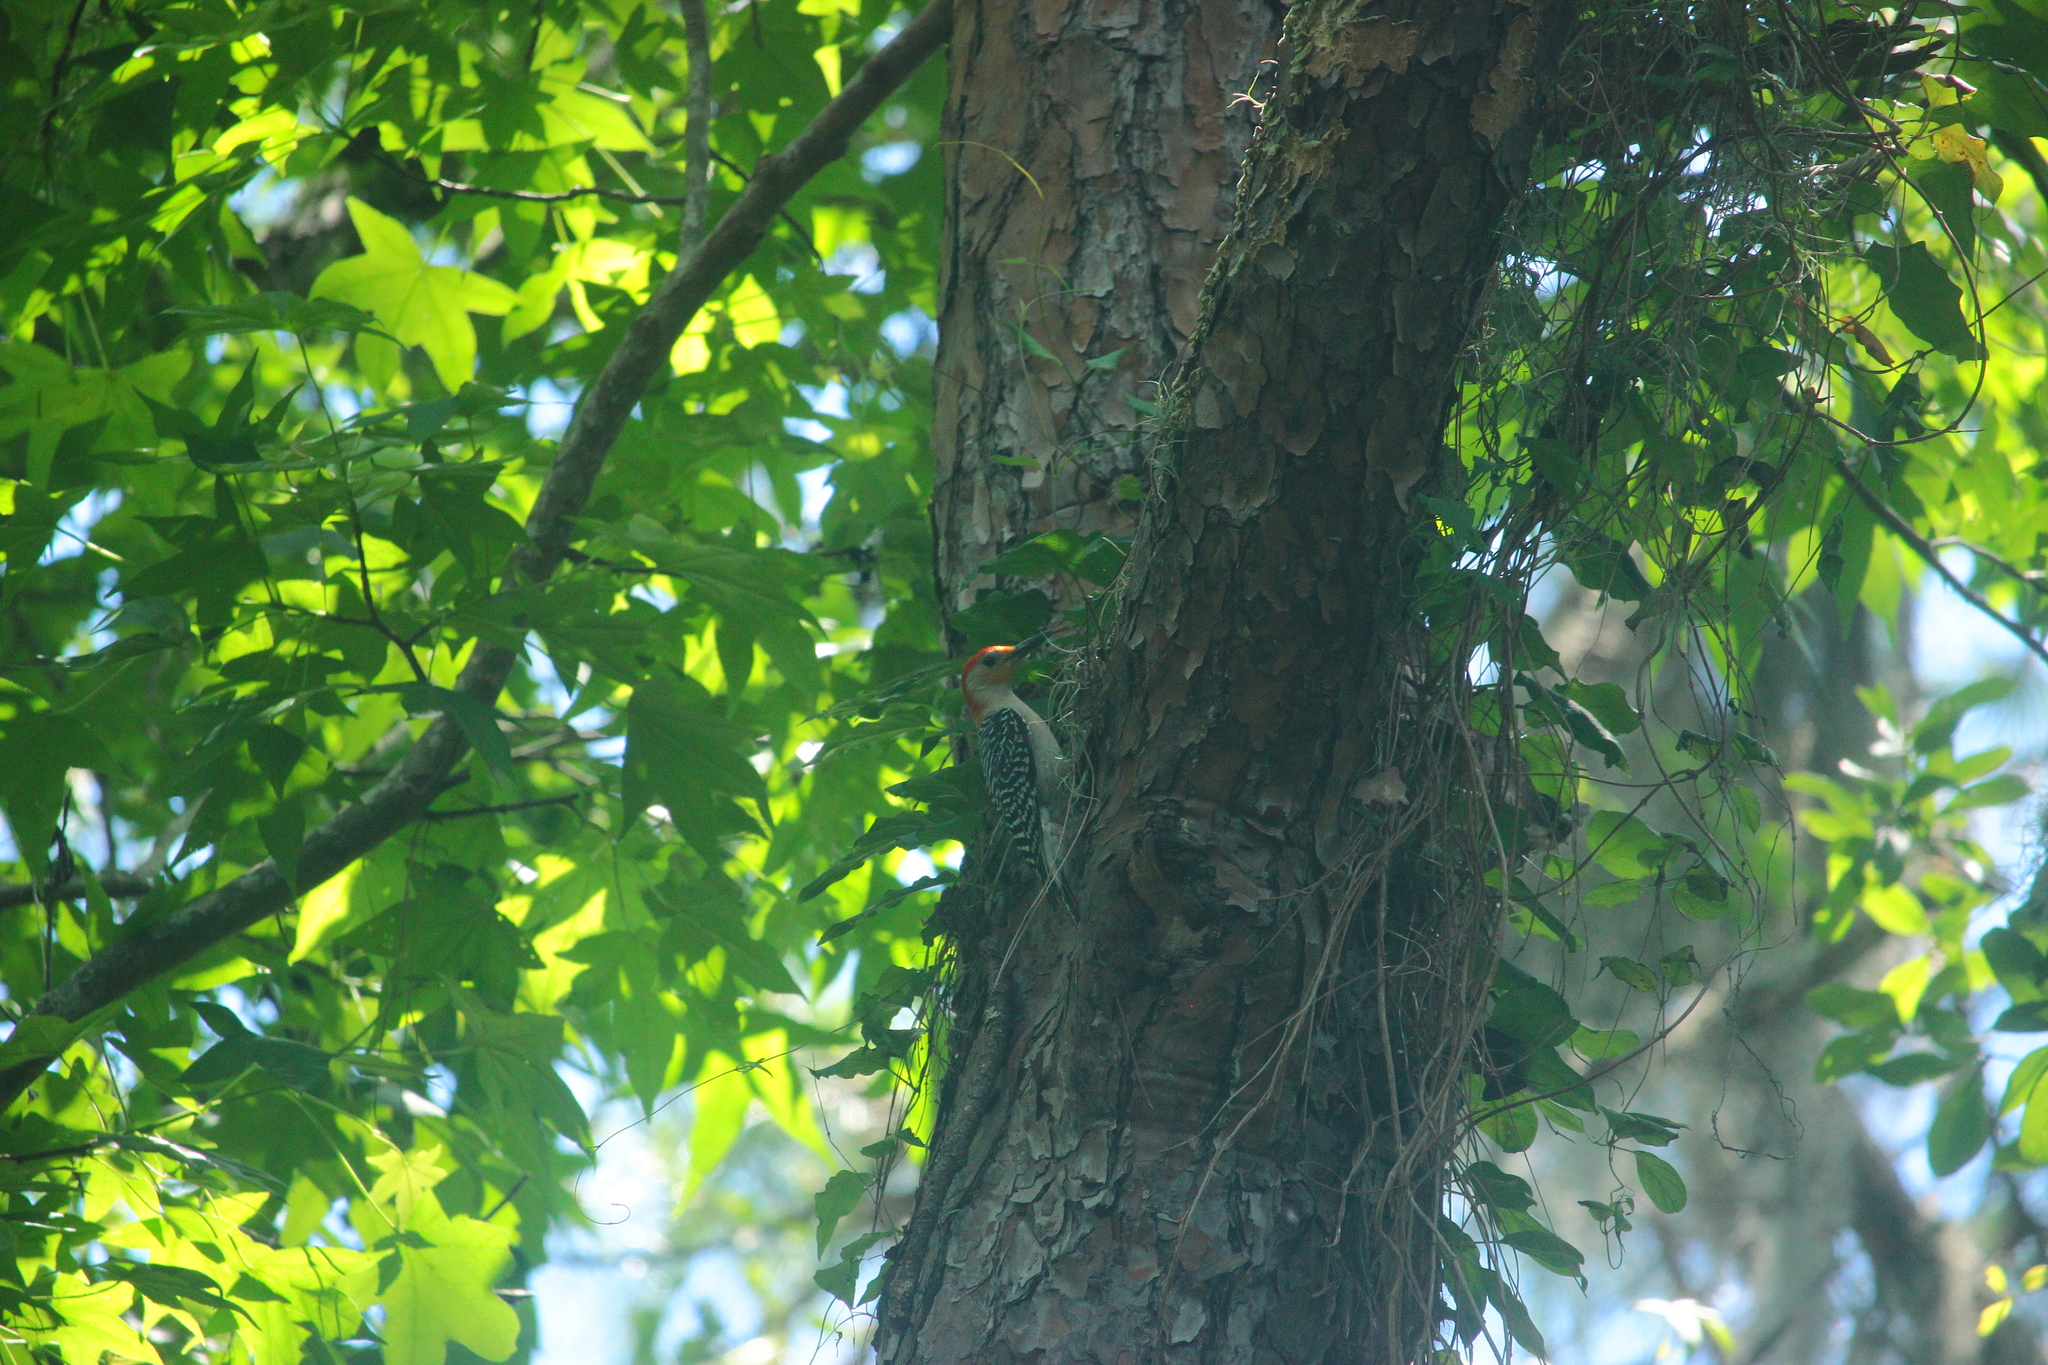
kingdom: Animalia
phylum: Chordata
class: Aves
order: Piciformes
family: Picidae
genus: Melanerpes
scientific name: Melanerpes carolinus
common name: Red-bellied woodpecker
